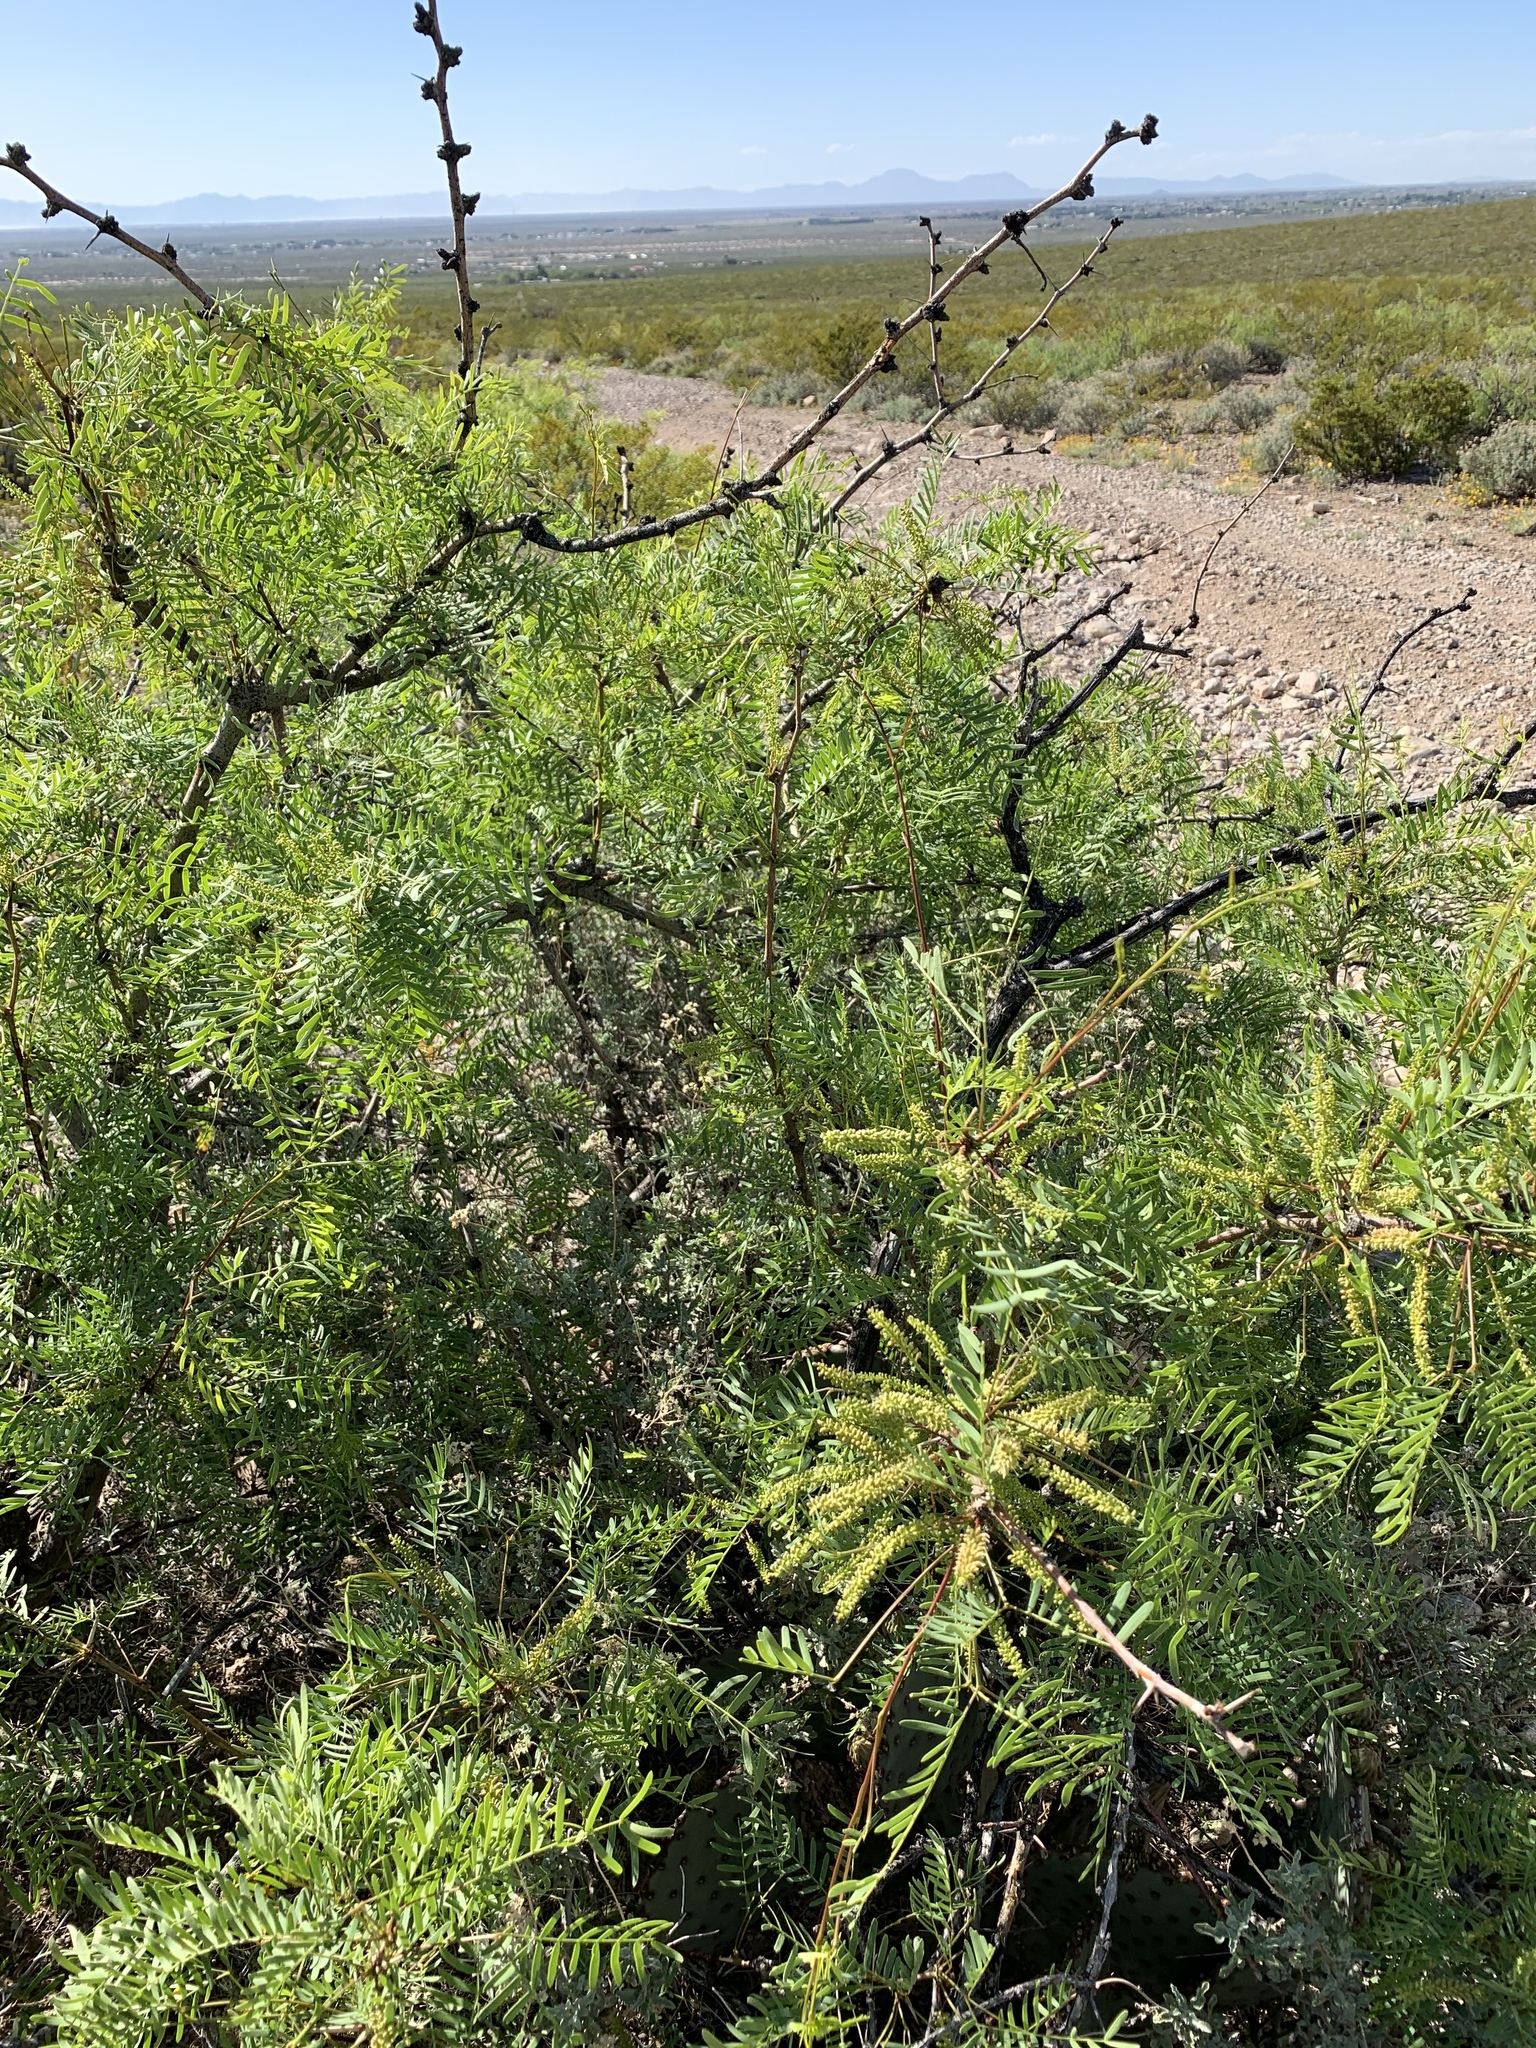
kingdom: Plantae
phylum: Tracheophyta
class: Magnoliopsida
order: Fabales
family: Fabaceae
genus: Prosopis
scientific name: Prosopis glandulosa
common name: Honey mesquite
